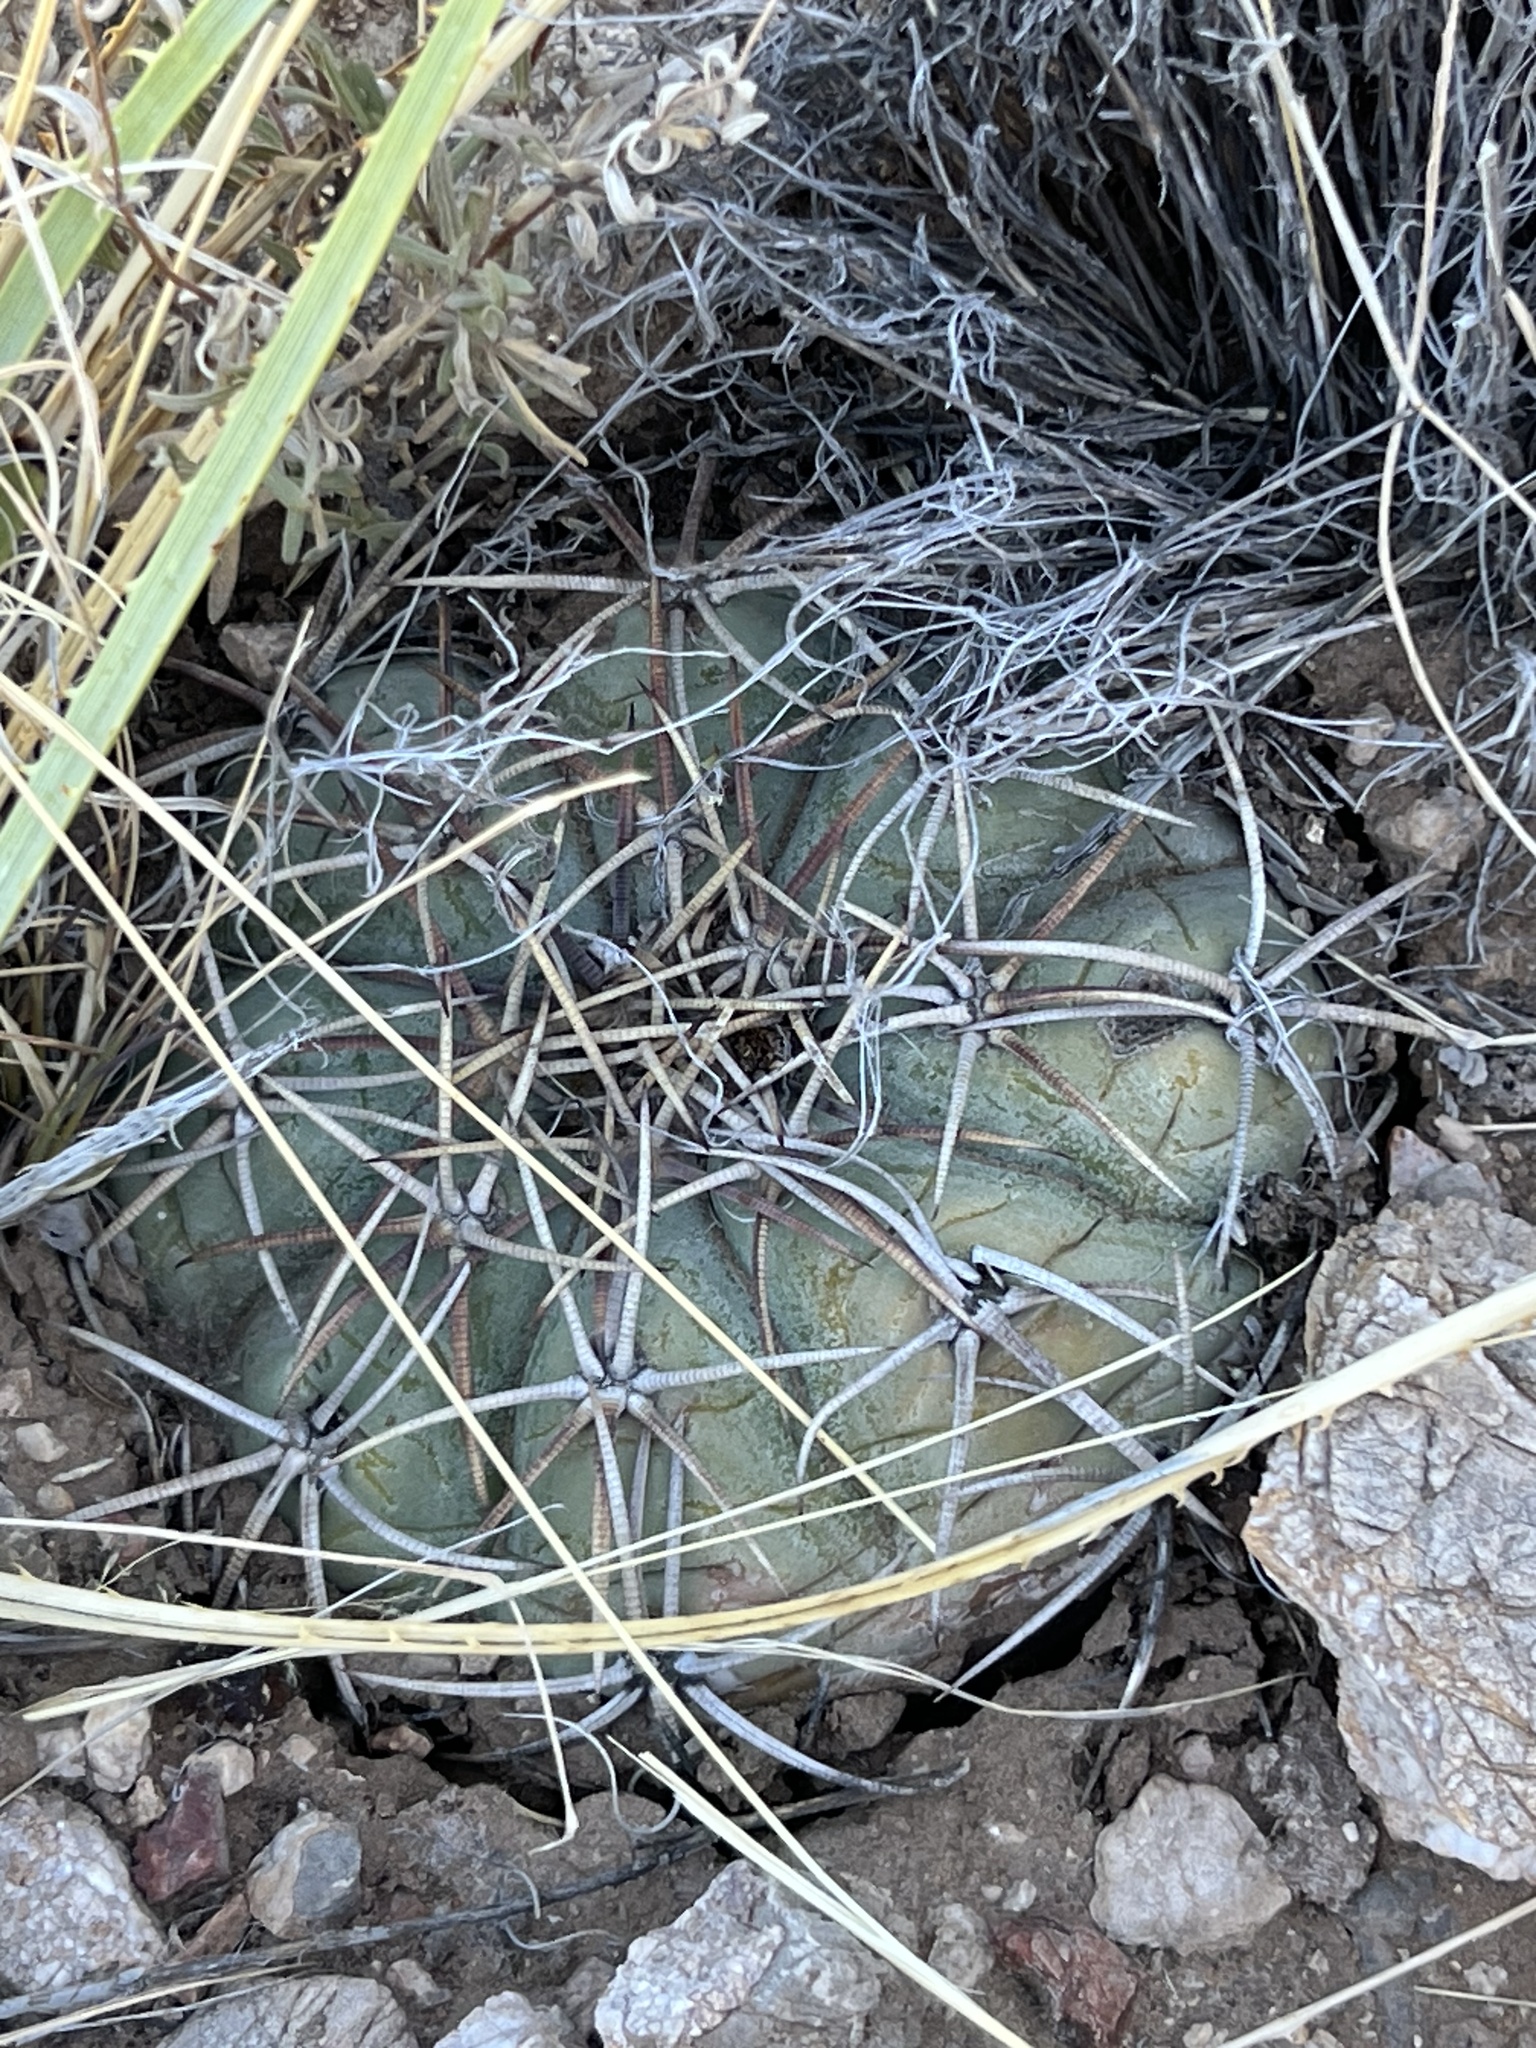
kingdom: Plantae
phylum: Tracheophyta
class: Magnoliopsida
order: Caryophyllales
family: Cactaceae
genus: Echinocactus
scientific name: Echinocactus horizonthalonius
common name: Devilshead
